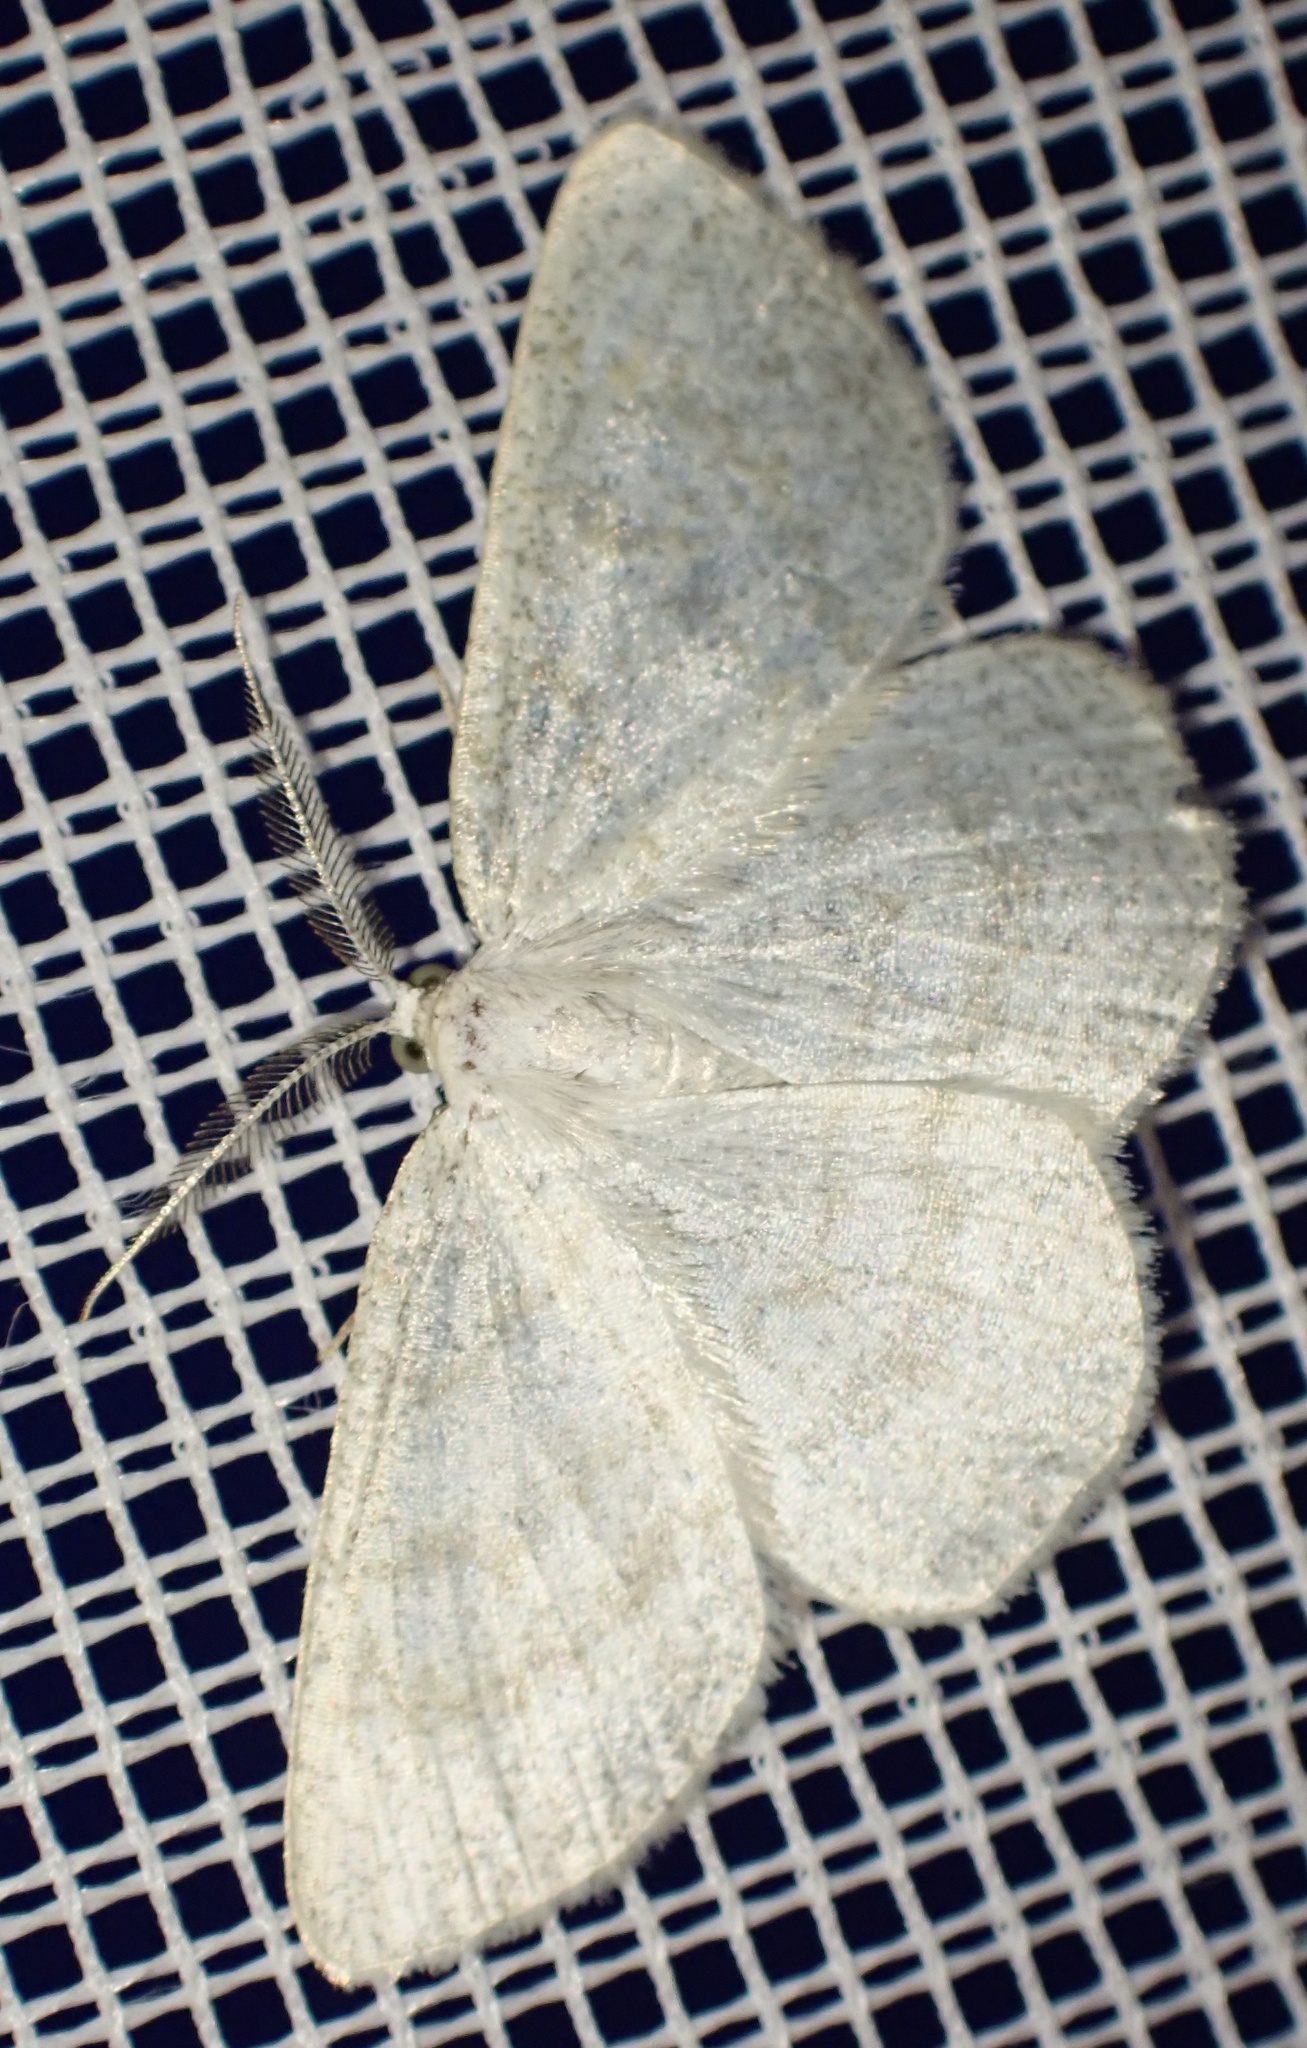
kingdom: Animalia
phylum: Arthropoda
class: Insecta
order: Lepidoptera
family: Geometridae
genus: Cabera
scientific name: Cabera exanthemata
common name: Common wave
